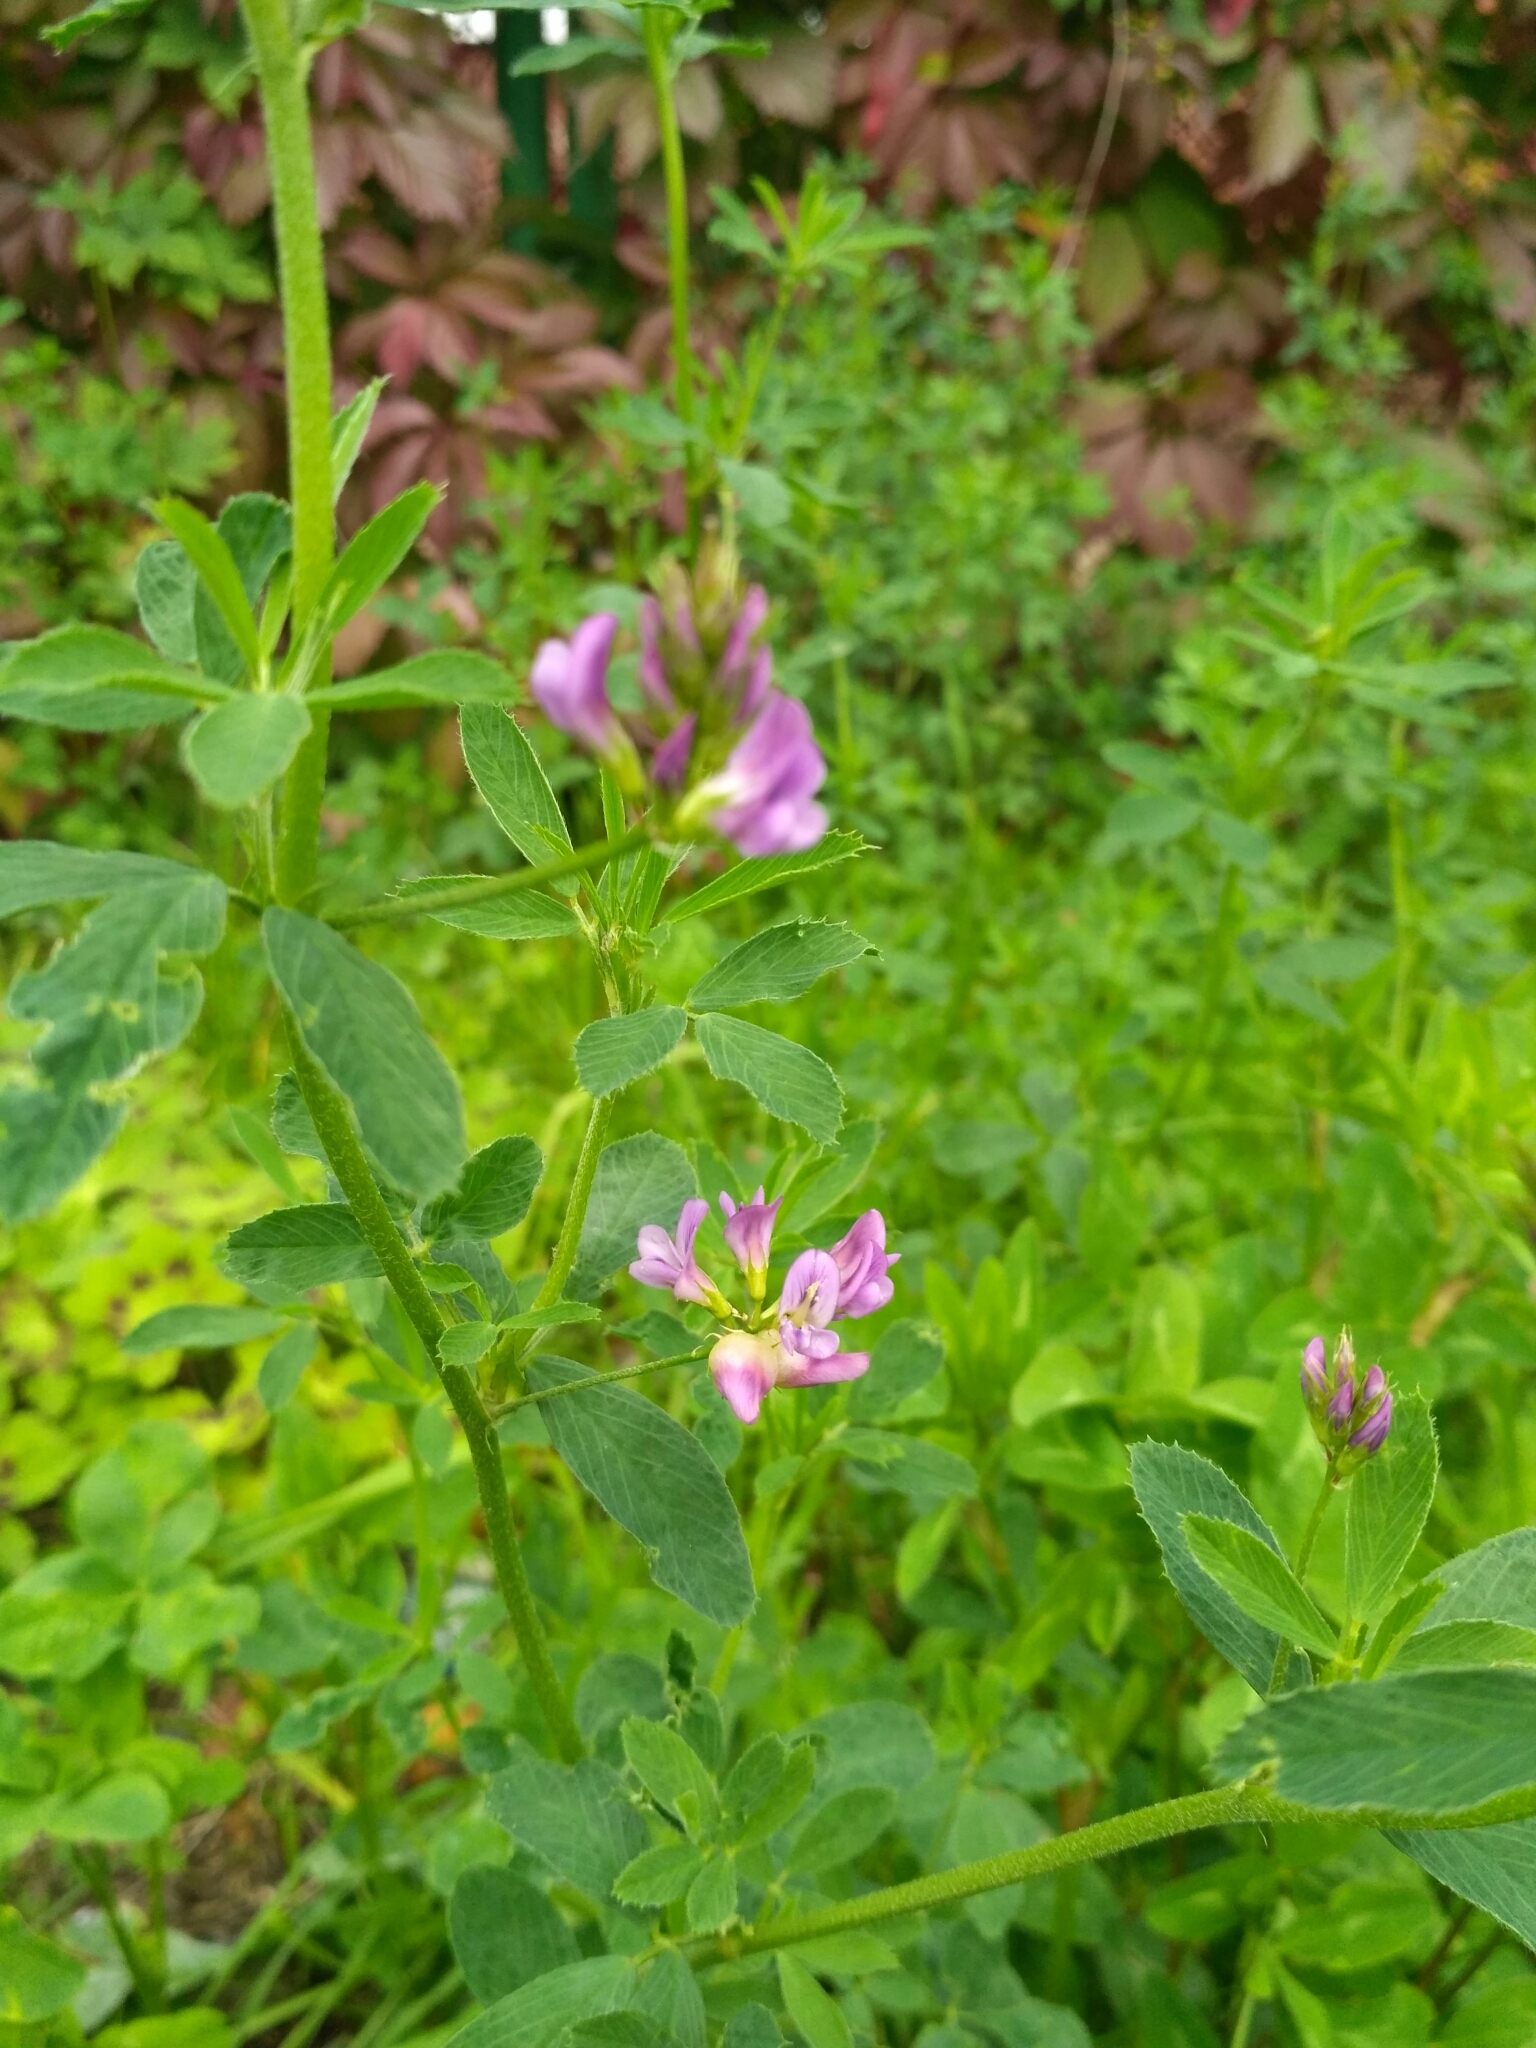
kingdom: Plantae
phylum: Tracheophyta
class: Magnoliopsida
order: Fabales
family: Fabaceae
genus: Medicago
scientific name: Medicago sativa
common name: Alfalfa
